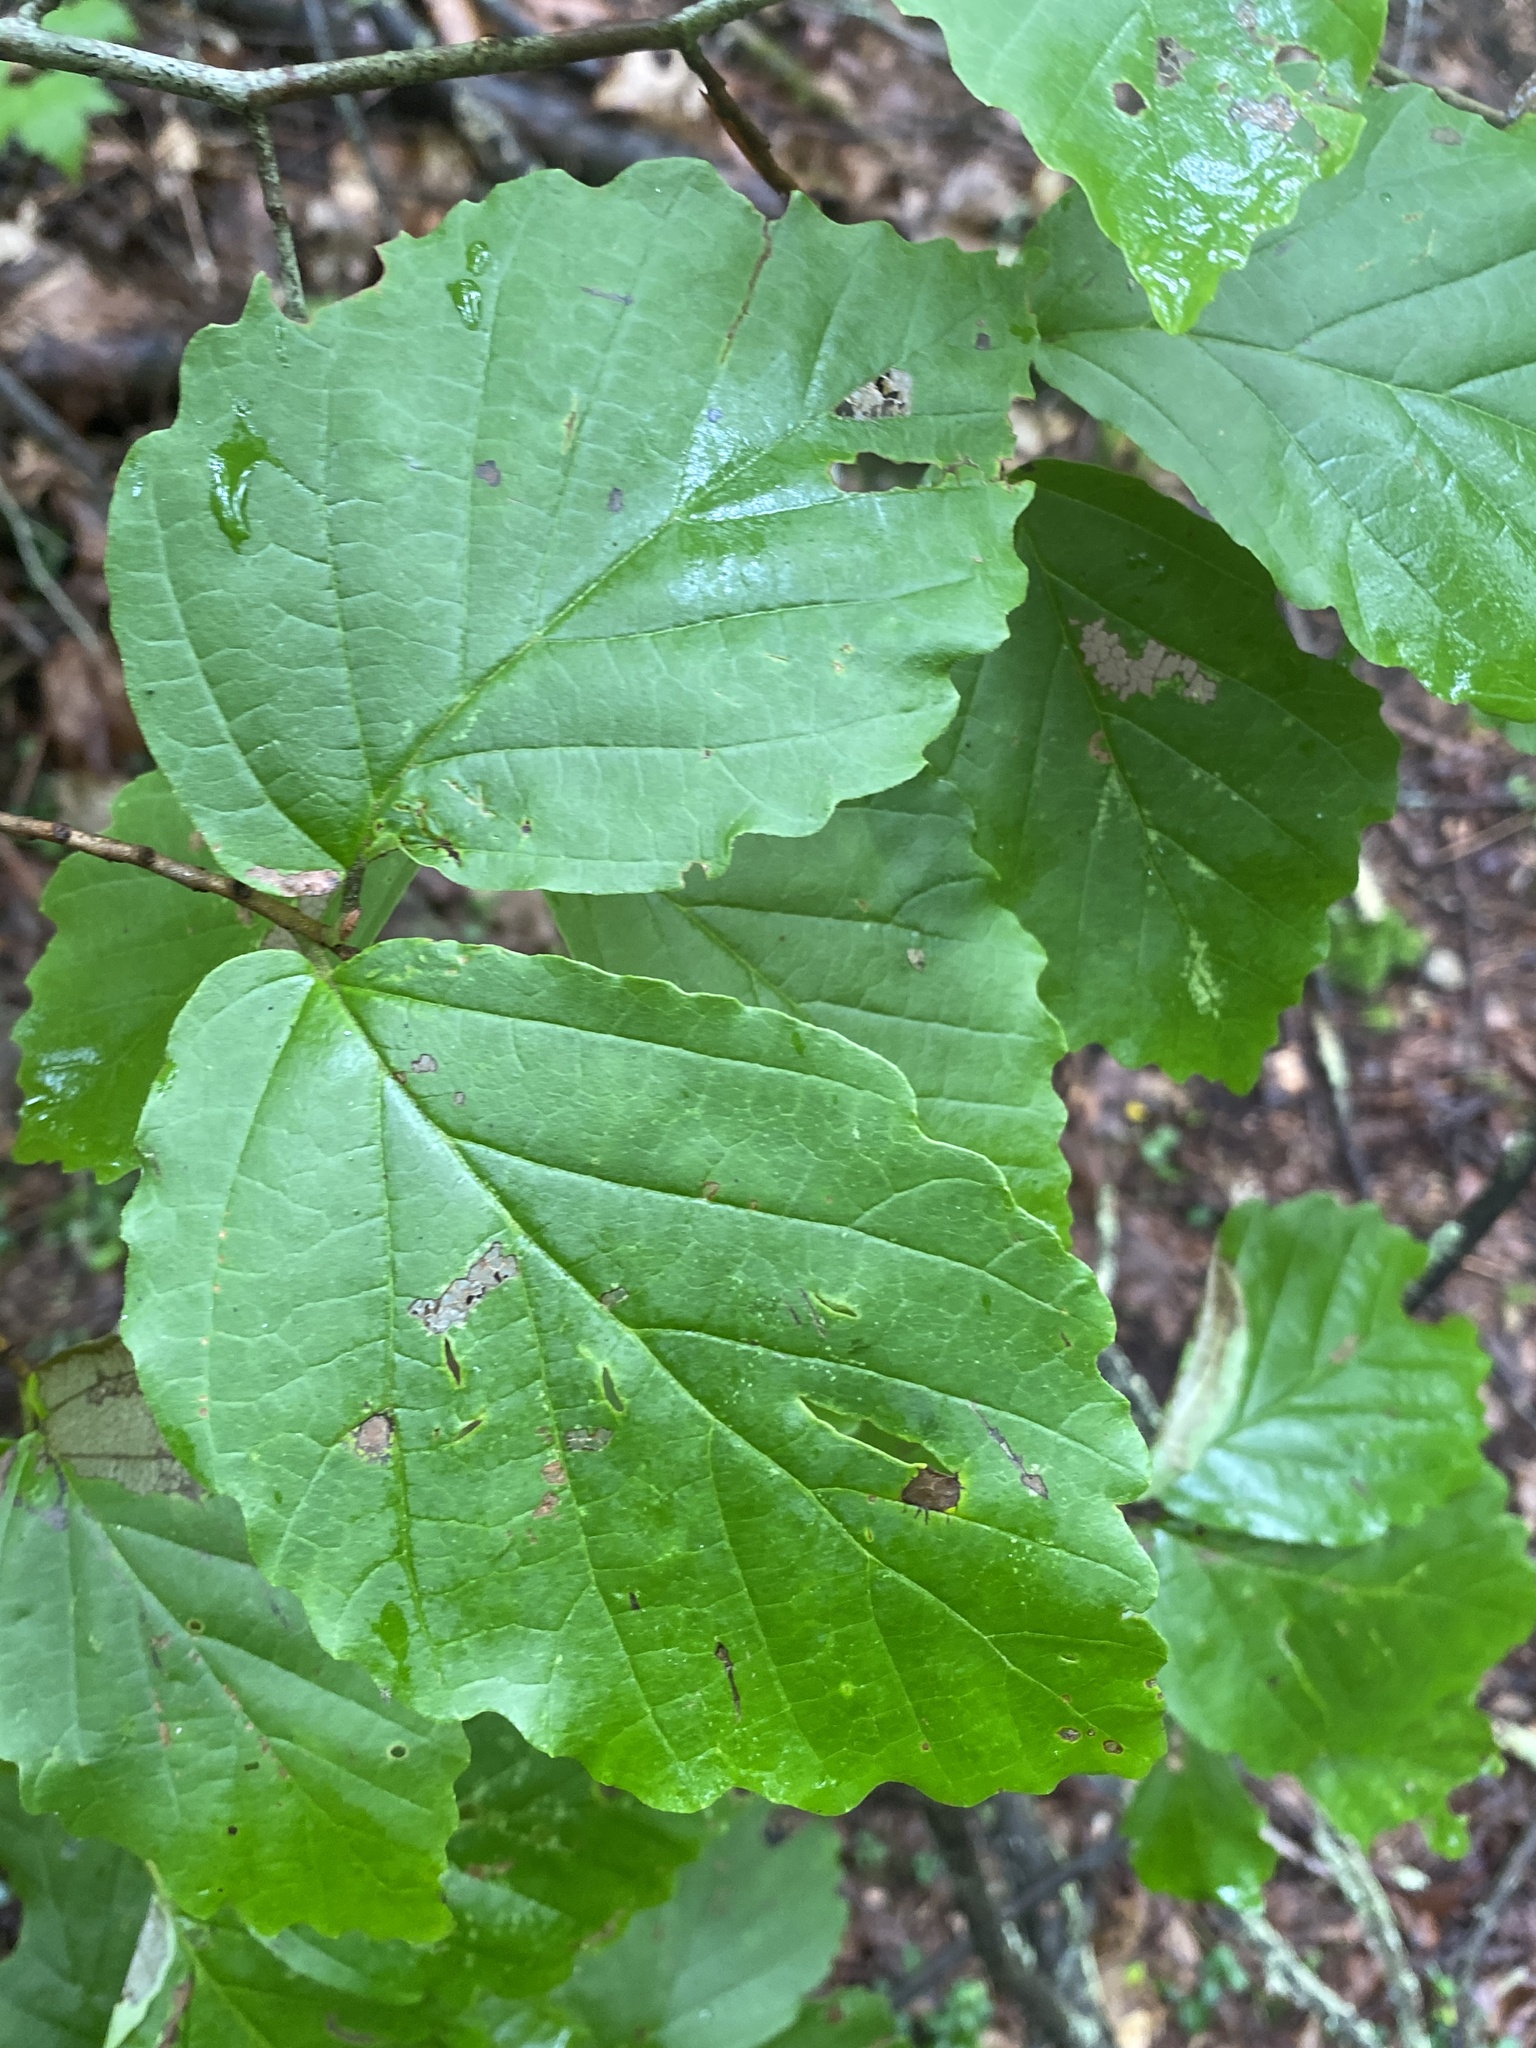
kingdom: Plantae
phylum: Tracheophyta
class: Magnoliopsida
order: Saxifragales
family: Hamamelidaceae
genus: Hamamelis
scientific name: Hamamelis virginiana
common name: Witch-hazel
